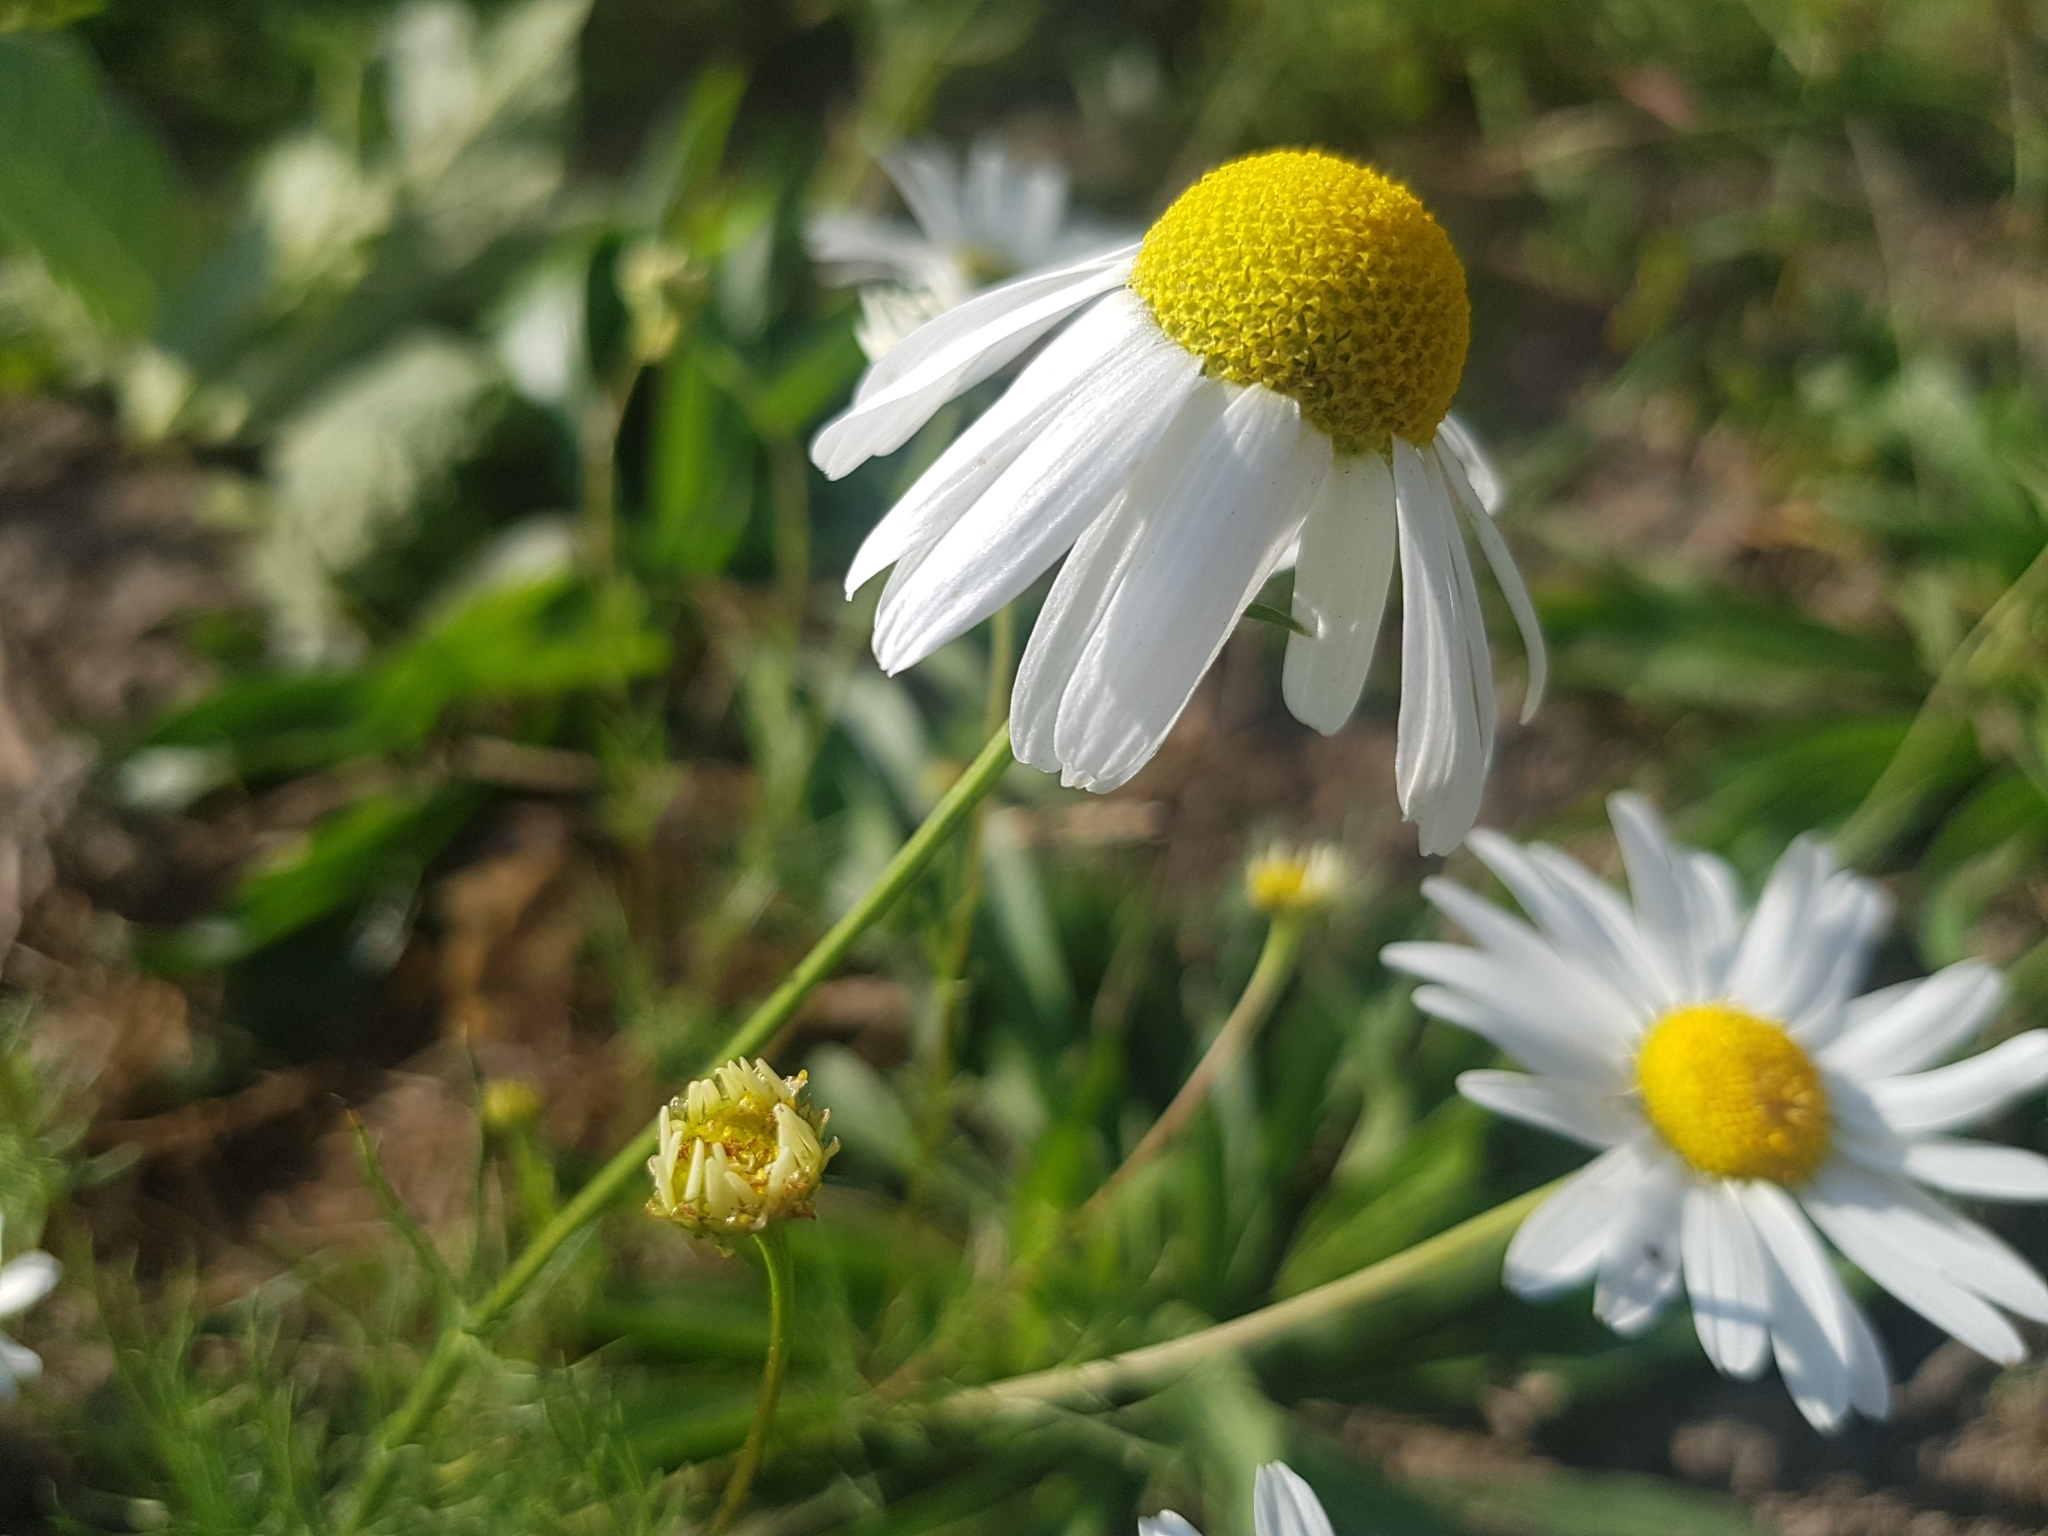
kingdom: Plantae
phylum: Tracheophyta
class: Magnoliopsida
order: Asterales
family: Asteraceae
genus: Tripleurospermum
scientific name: Tripleurospermum inodorum
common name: Scentless mayweed
